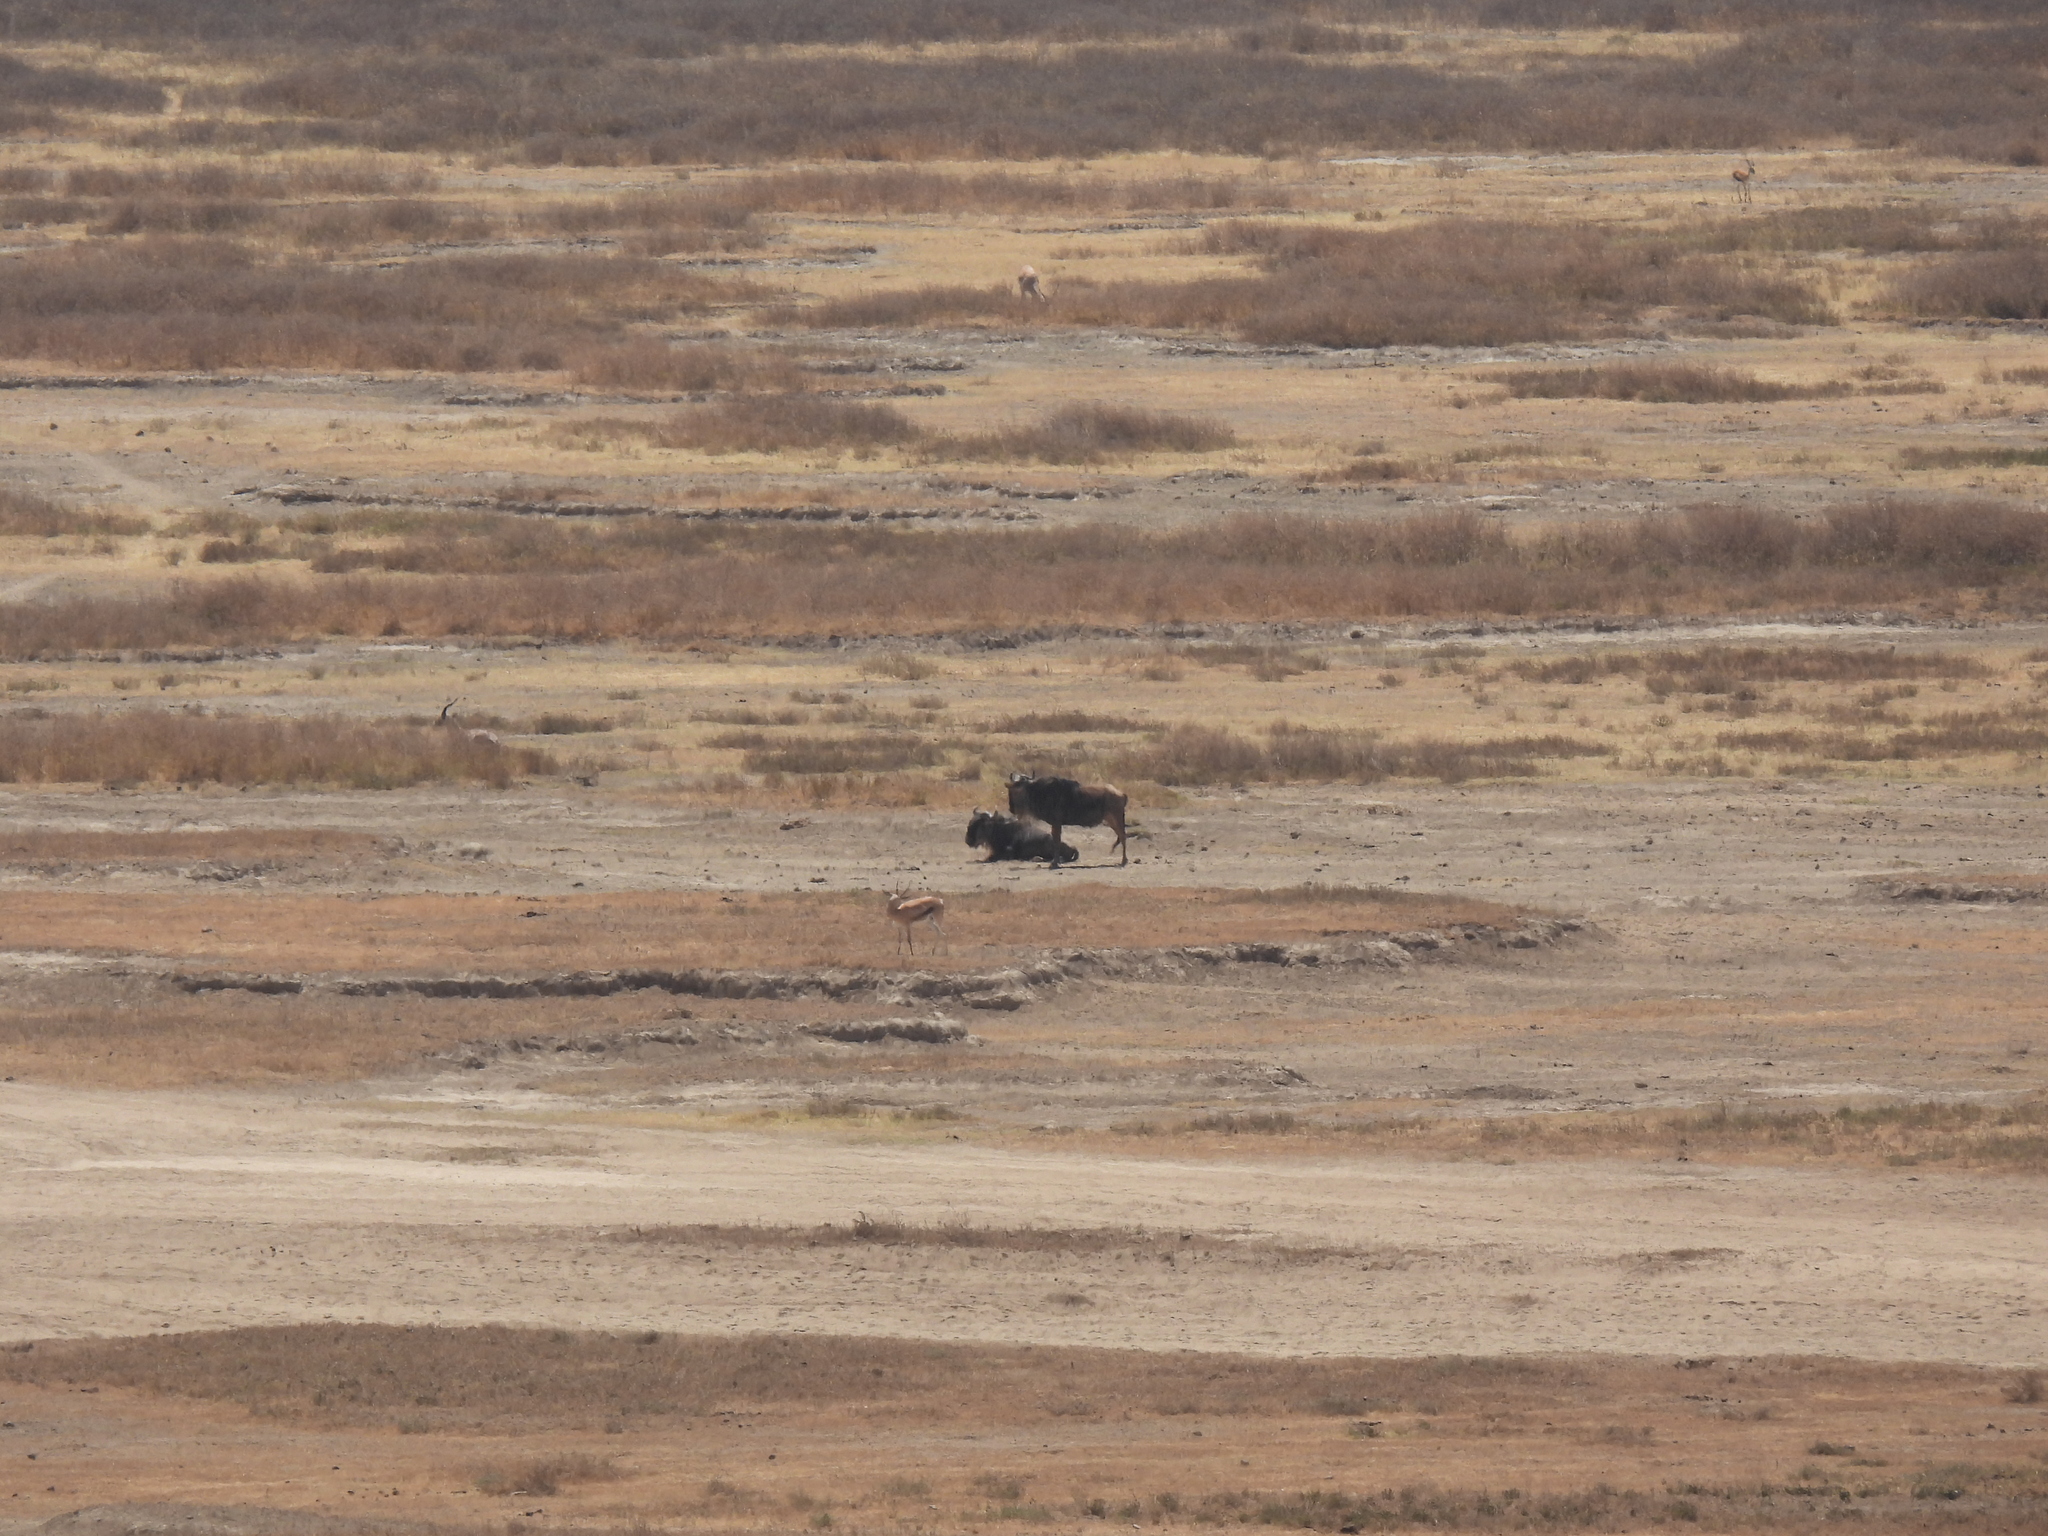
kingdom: Animalia
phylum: Chordata
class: Mammalia
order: Artiodactyla
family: Bovidae
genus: Connochaetes
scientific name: Connochaetes taurinus
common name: Blue wildebeest
